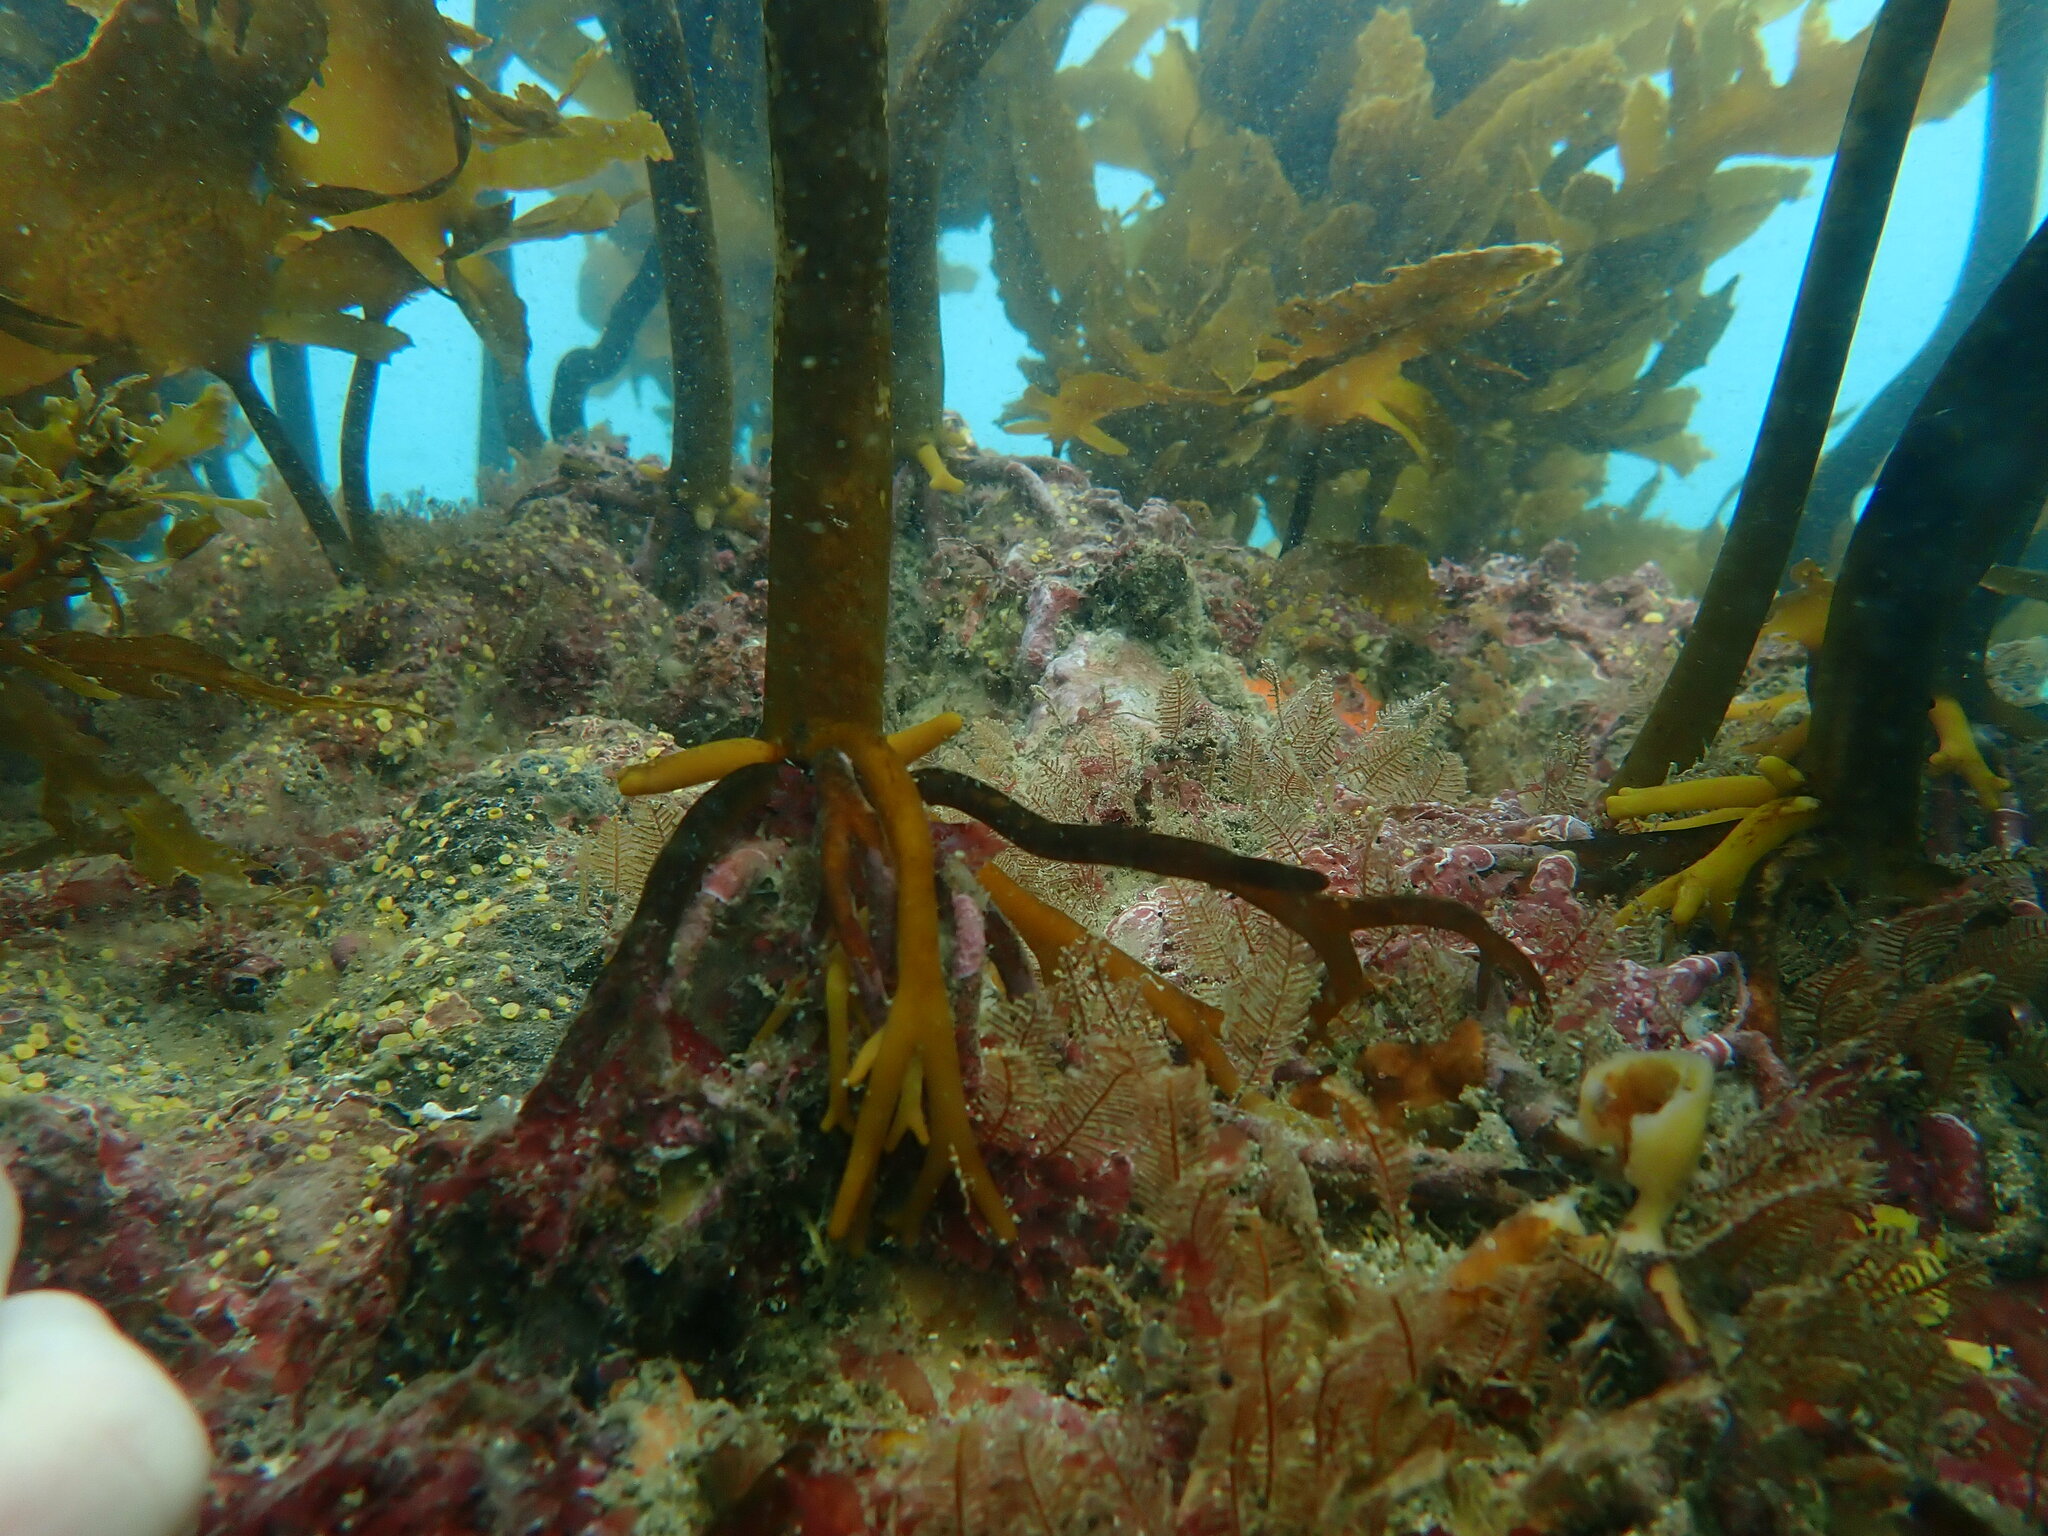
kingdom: Chromista
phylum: Ochrophyta
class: Phaeophyceae
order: Laminariales
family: Lessoniaceae
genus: Ecklonia
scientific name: Ecklonia radiata
